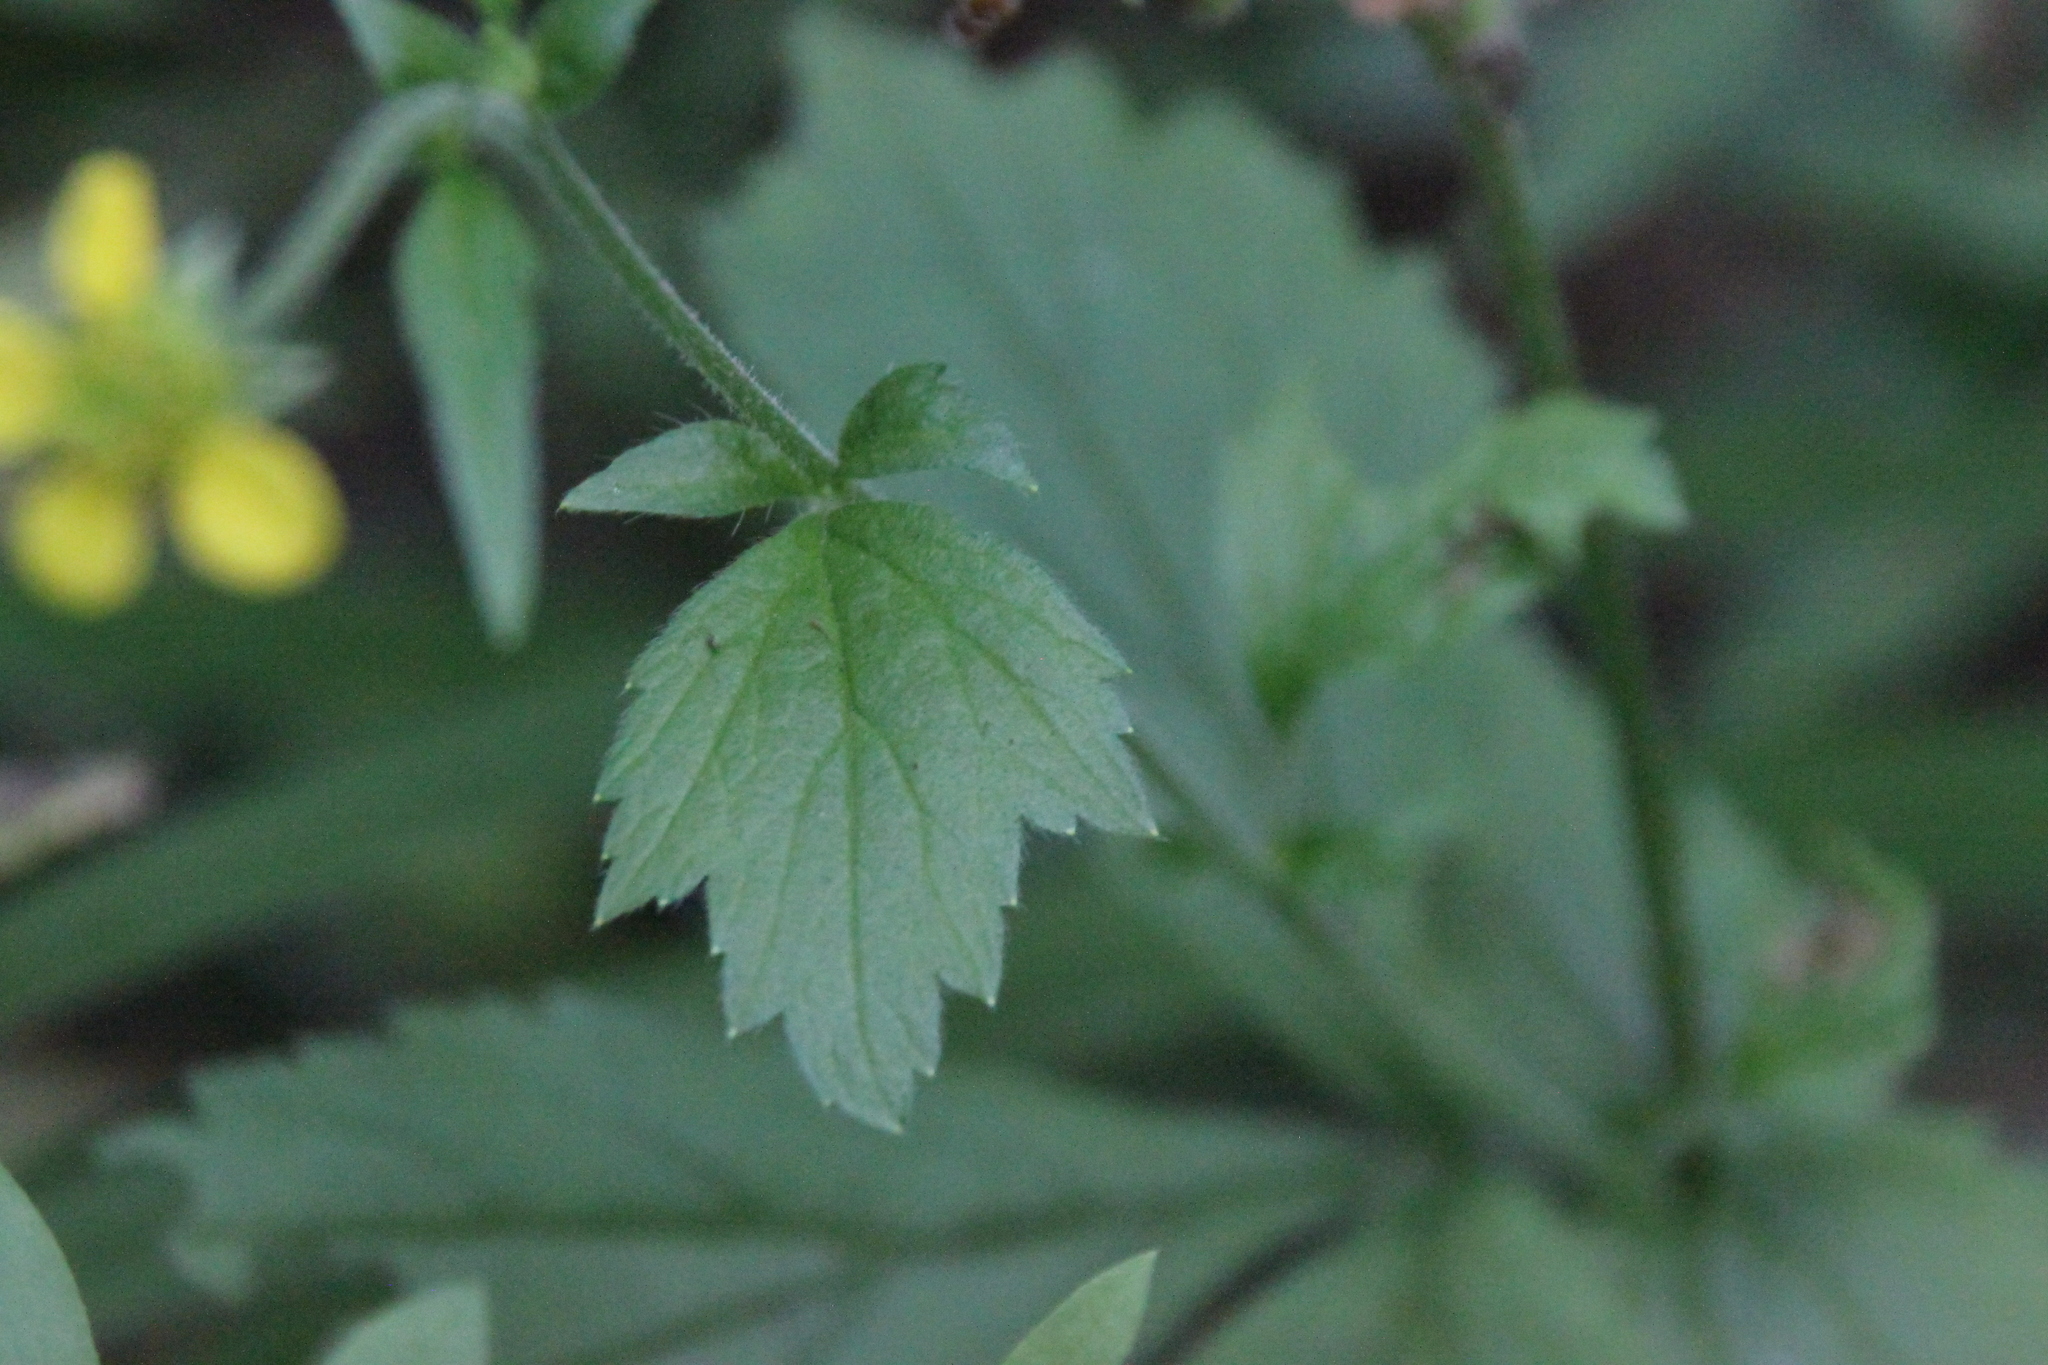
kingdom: Plantae
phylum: Tracheophyta
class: Magnoliopsida
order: Rosales
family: Rosaceae
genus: Geum
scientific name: Geum urbanum
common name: Wood avens
